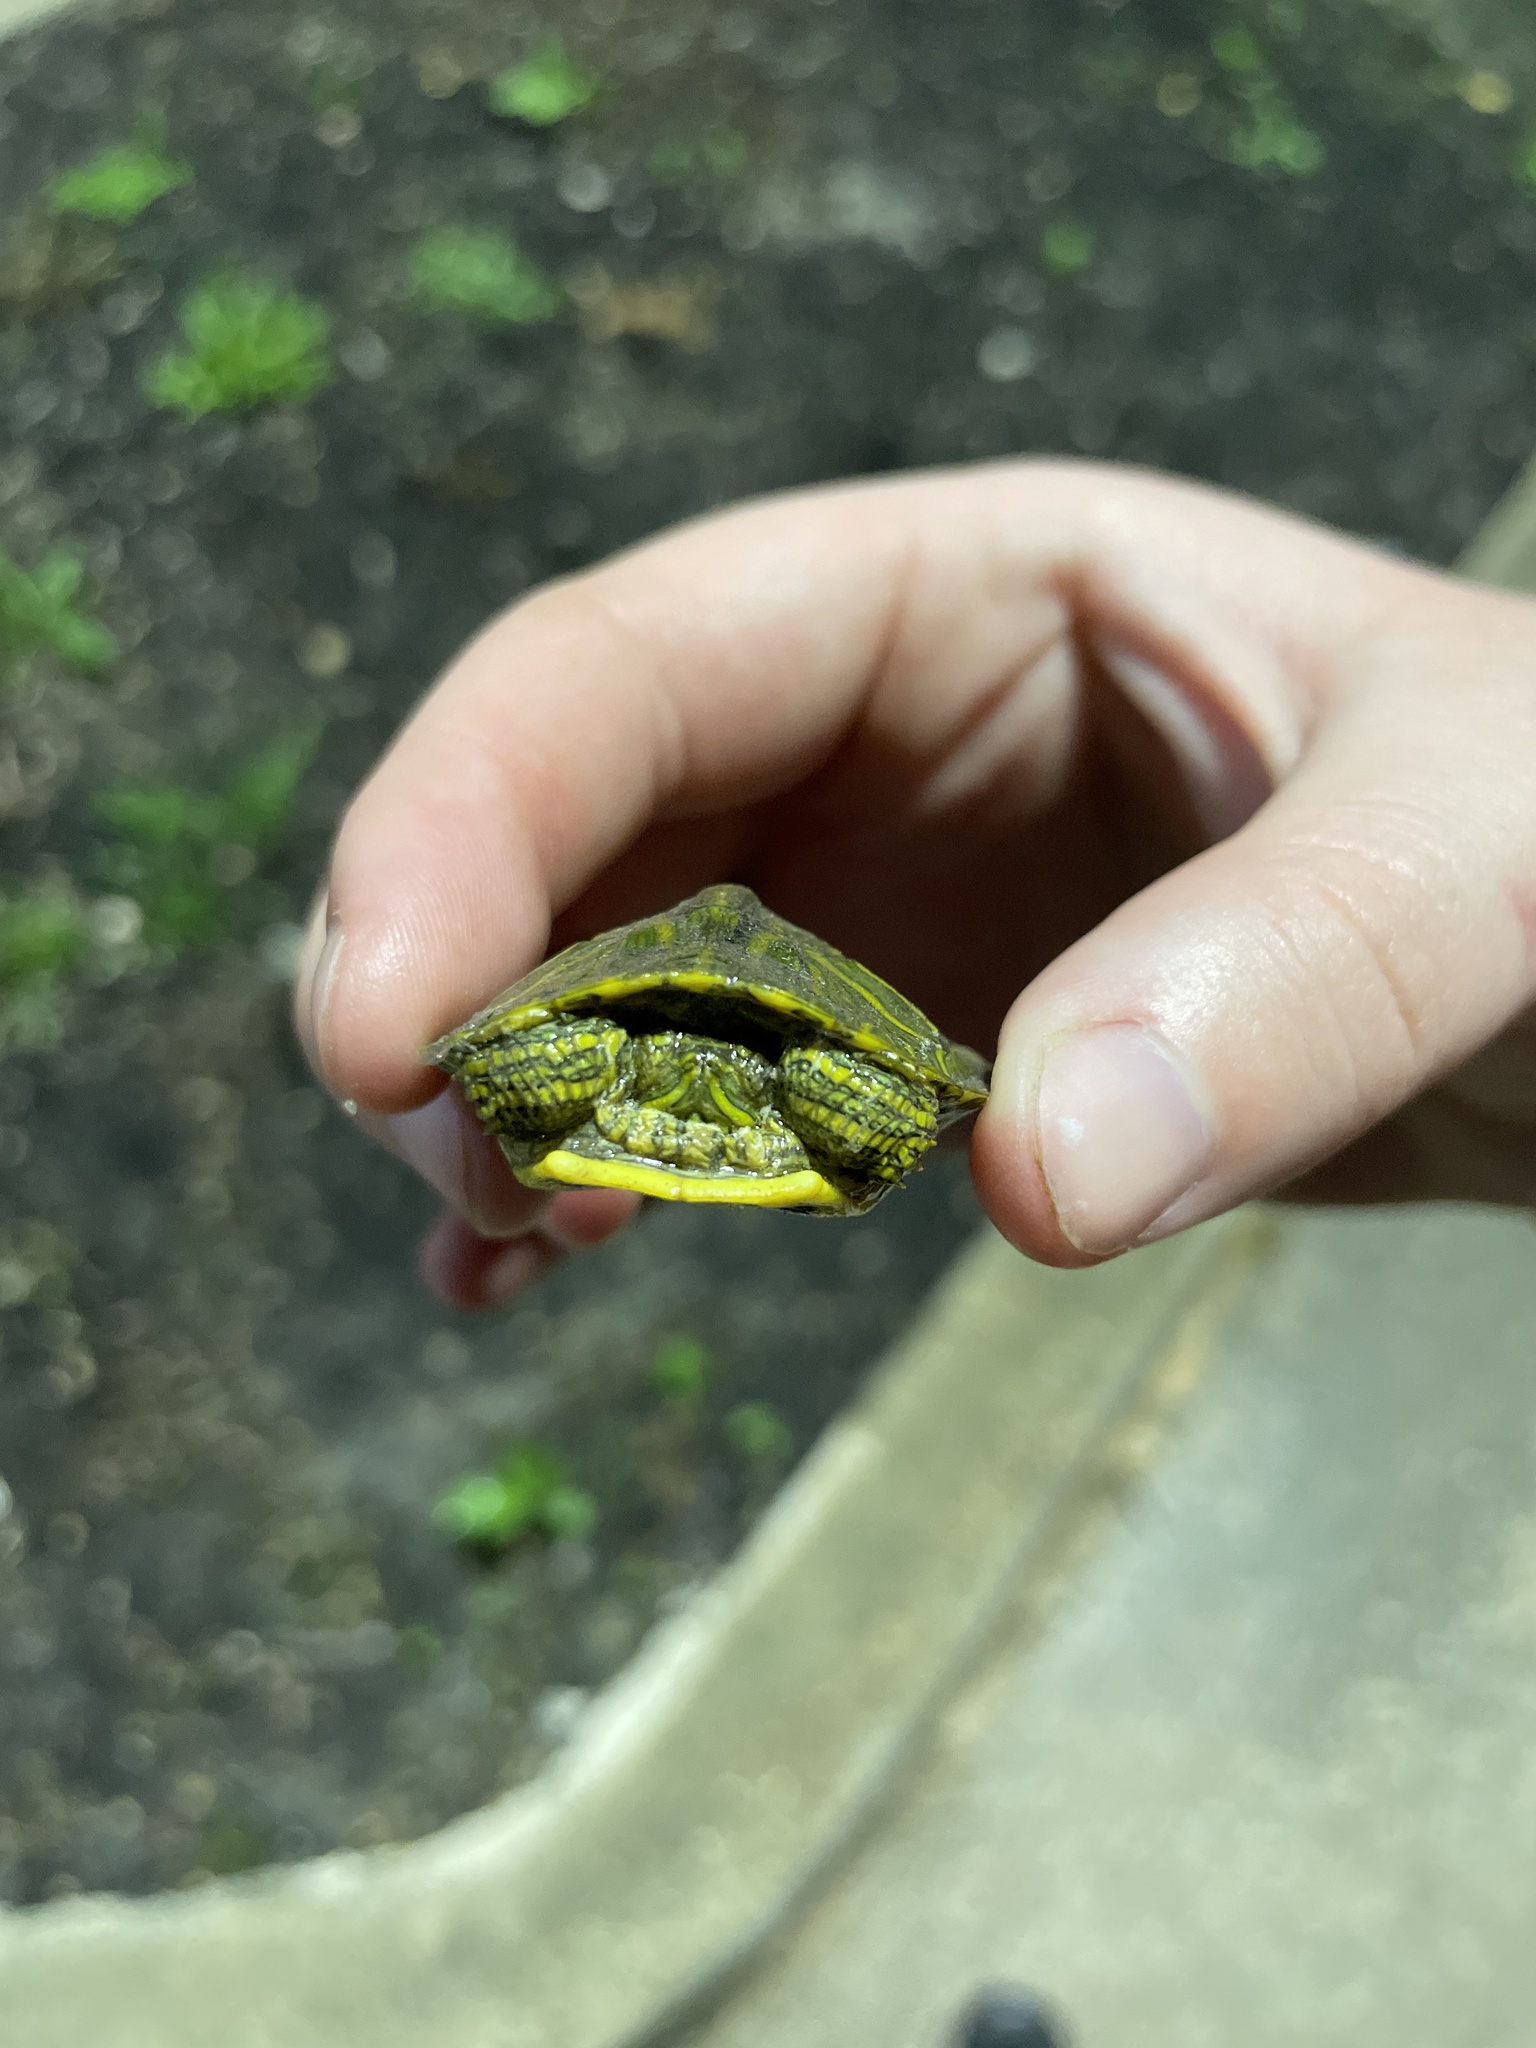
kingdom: Animalia
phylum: Chordata
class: Testudines
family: Emydidae
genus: Trachemys
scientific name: Trachemys scripta
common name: Slider
